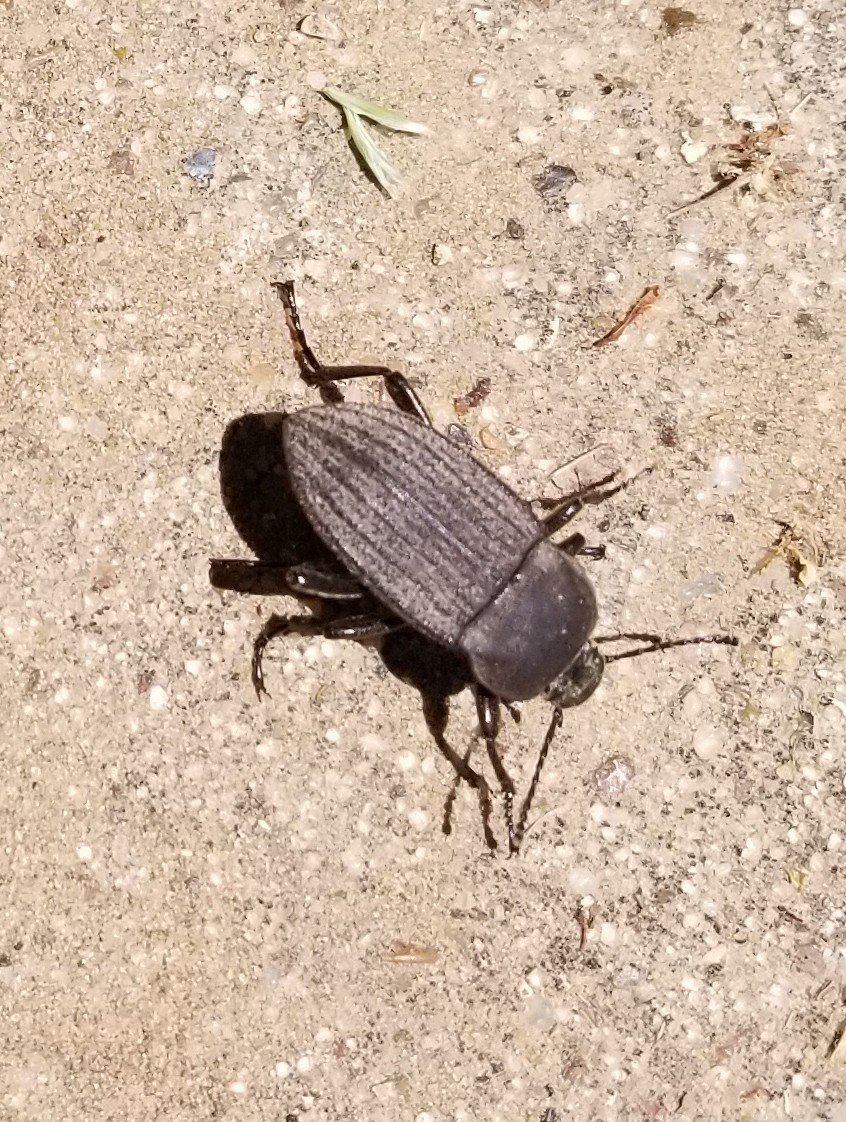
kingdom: Animalia
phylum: Arthropoda
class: Insecta
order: Coleoptera
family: Tenebrionidae
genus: Eleodes
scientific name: Eleodes tricostata
